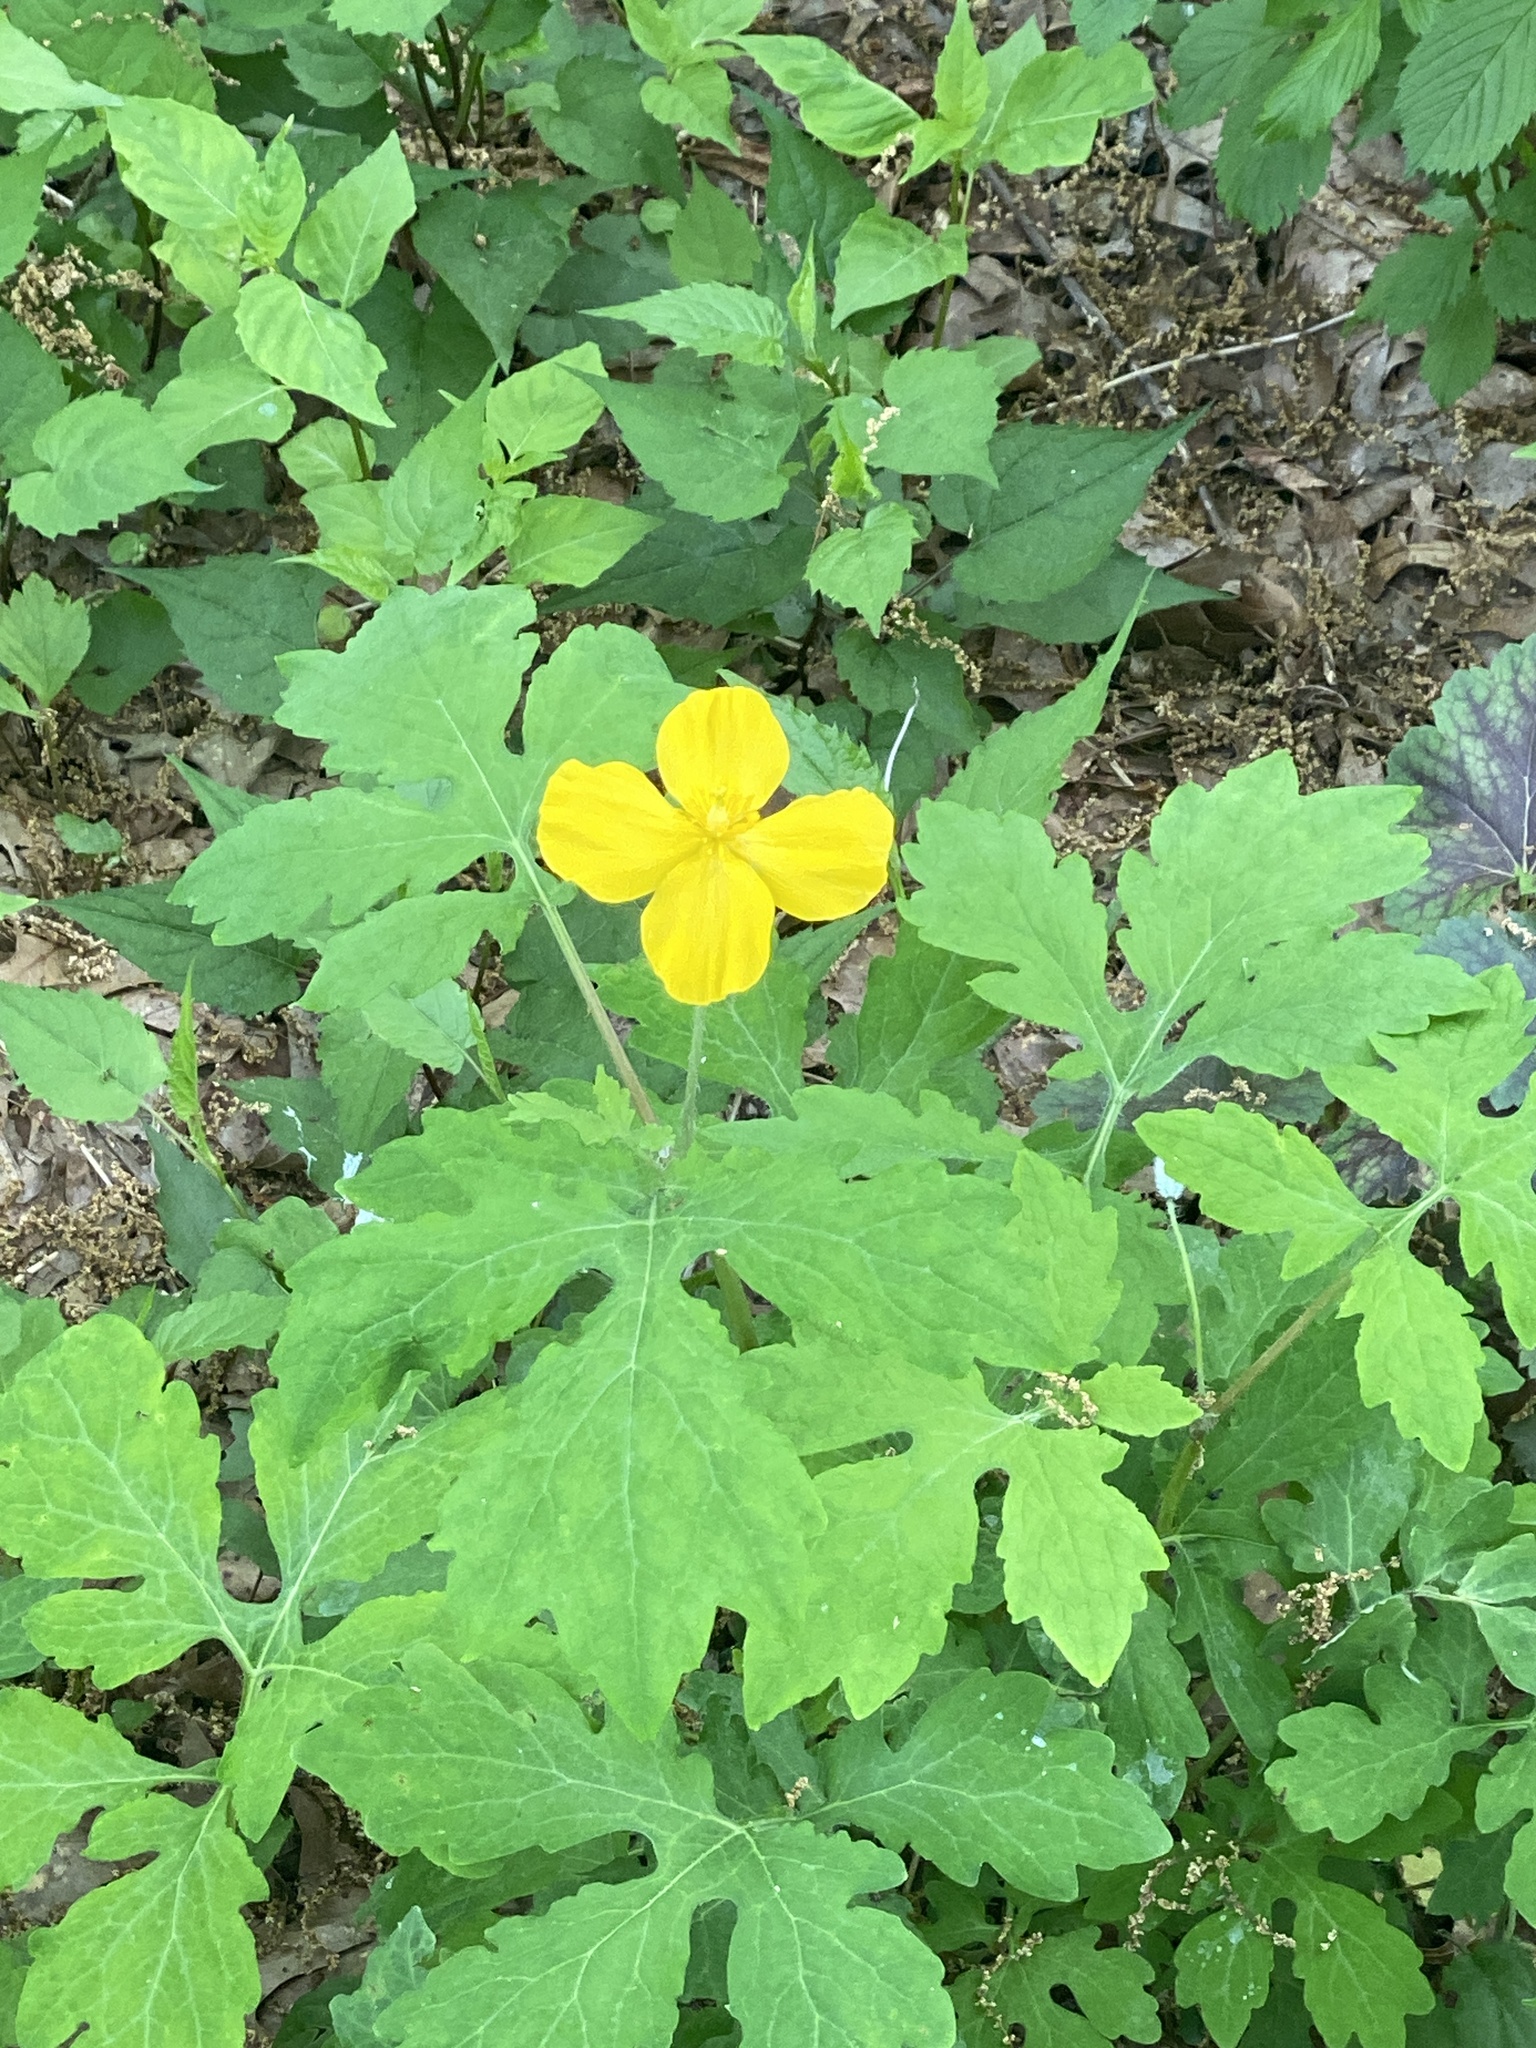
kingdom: Plantae
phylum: Tracheophyta
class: Magnoliopsida
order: Ranunculales
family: Papaveraceae
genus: Stylophorum
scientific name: Stylophorum diphyllum
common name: Celandine poppy
